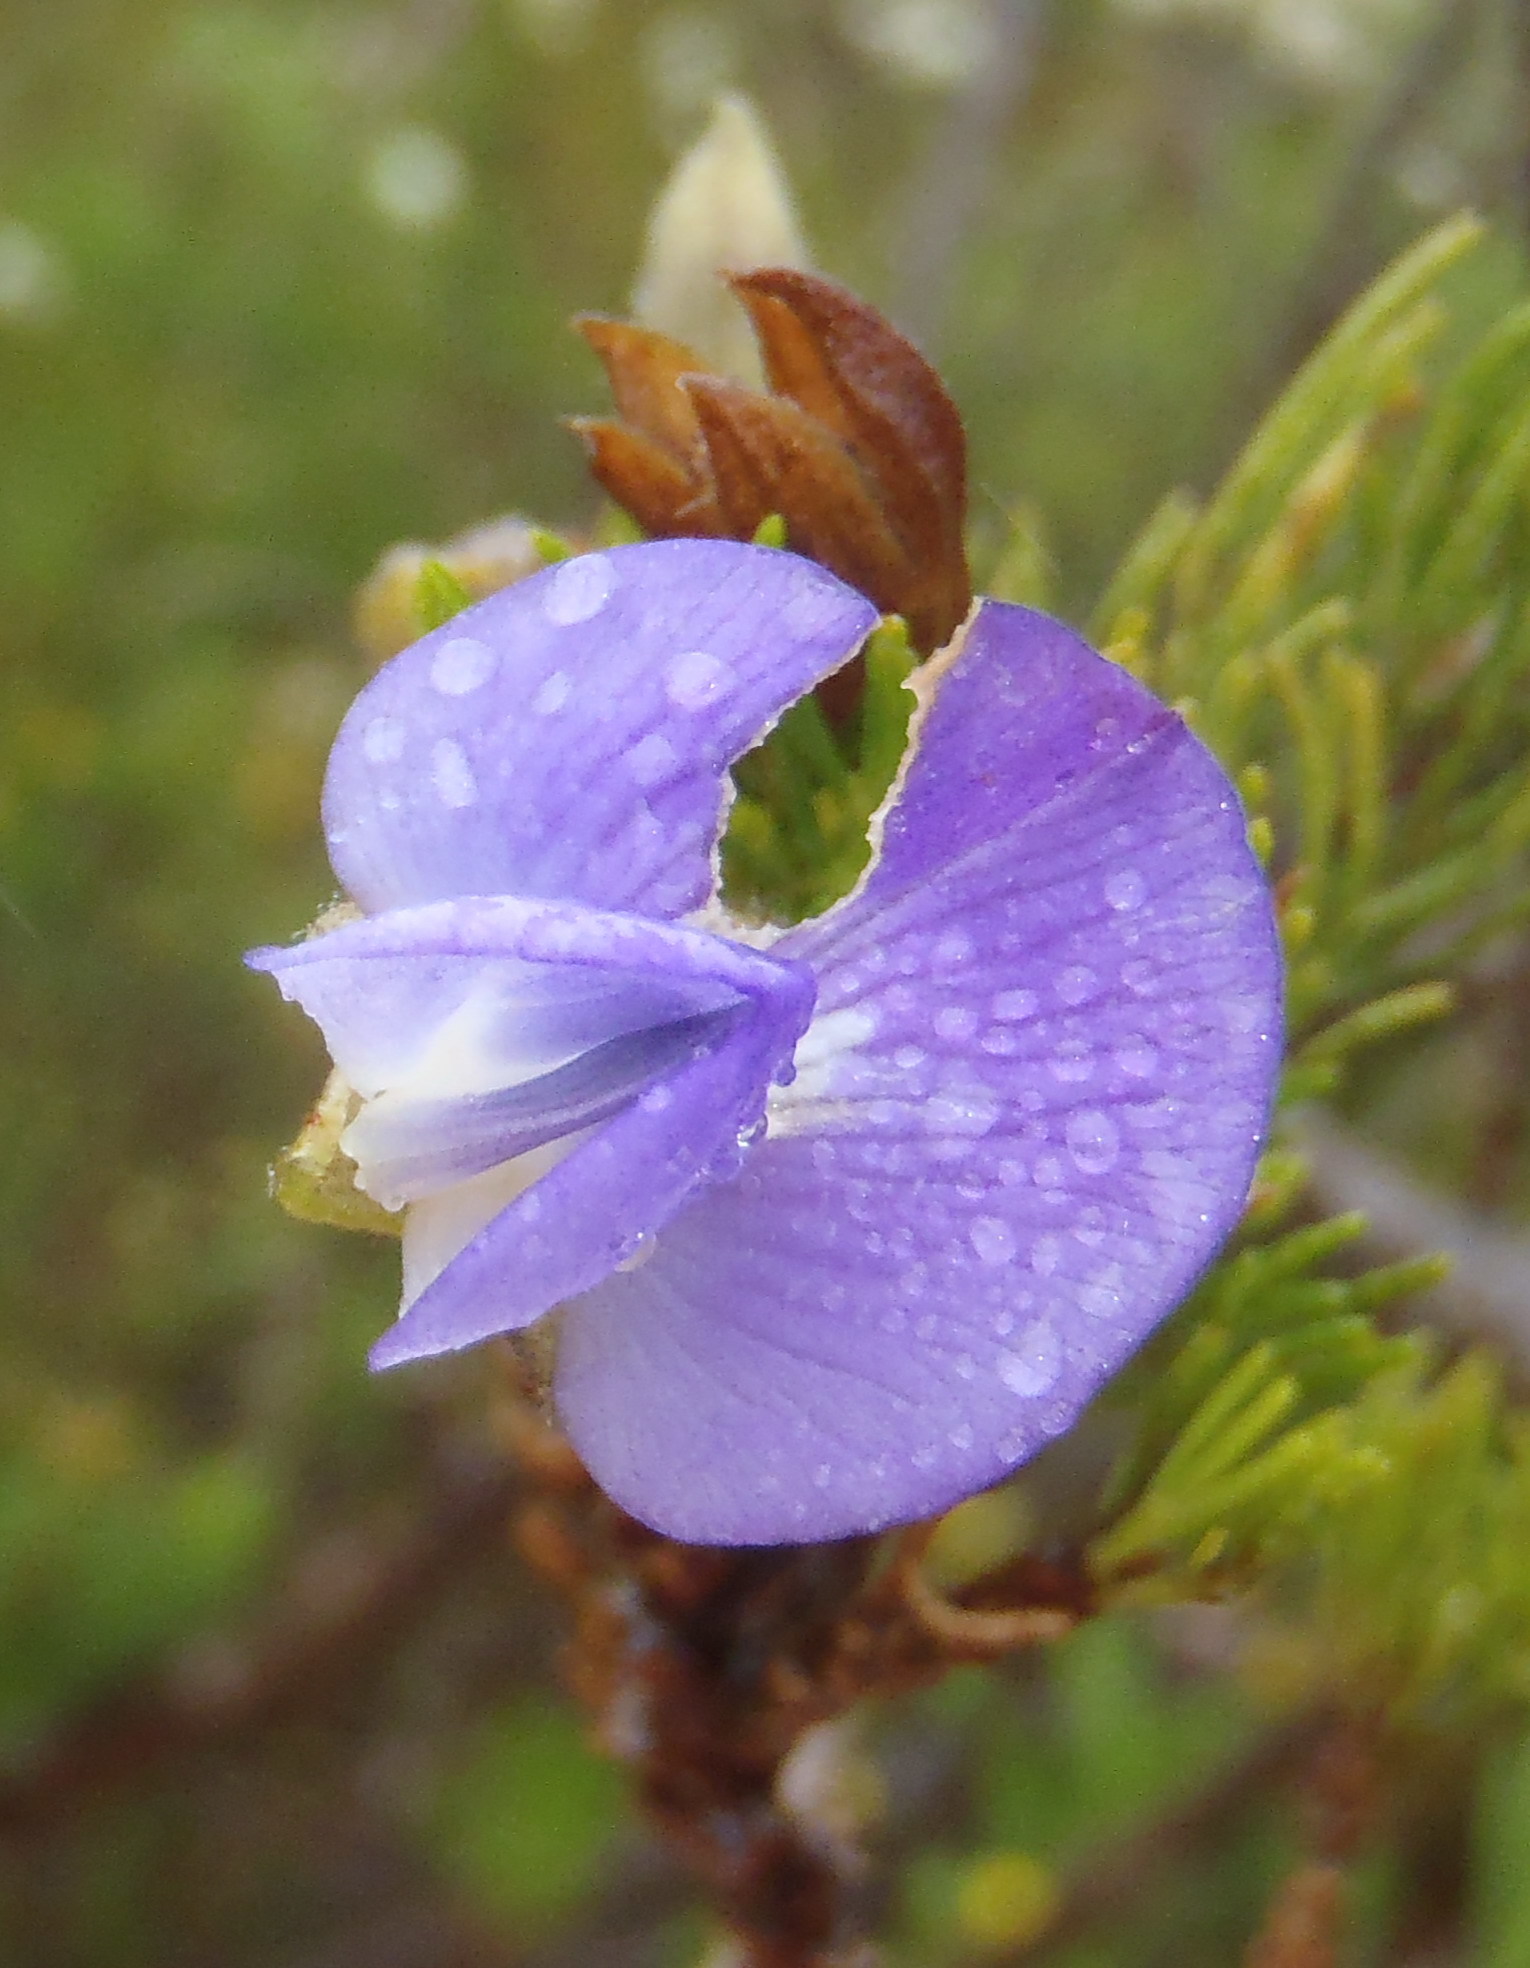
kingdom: Plantae
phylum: Tracheophyta
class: Magnoliopsida
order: Fabales
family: Fabaceae
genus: Psoralea
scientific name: Psoralea speciosa
